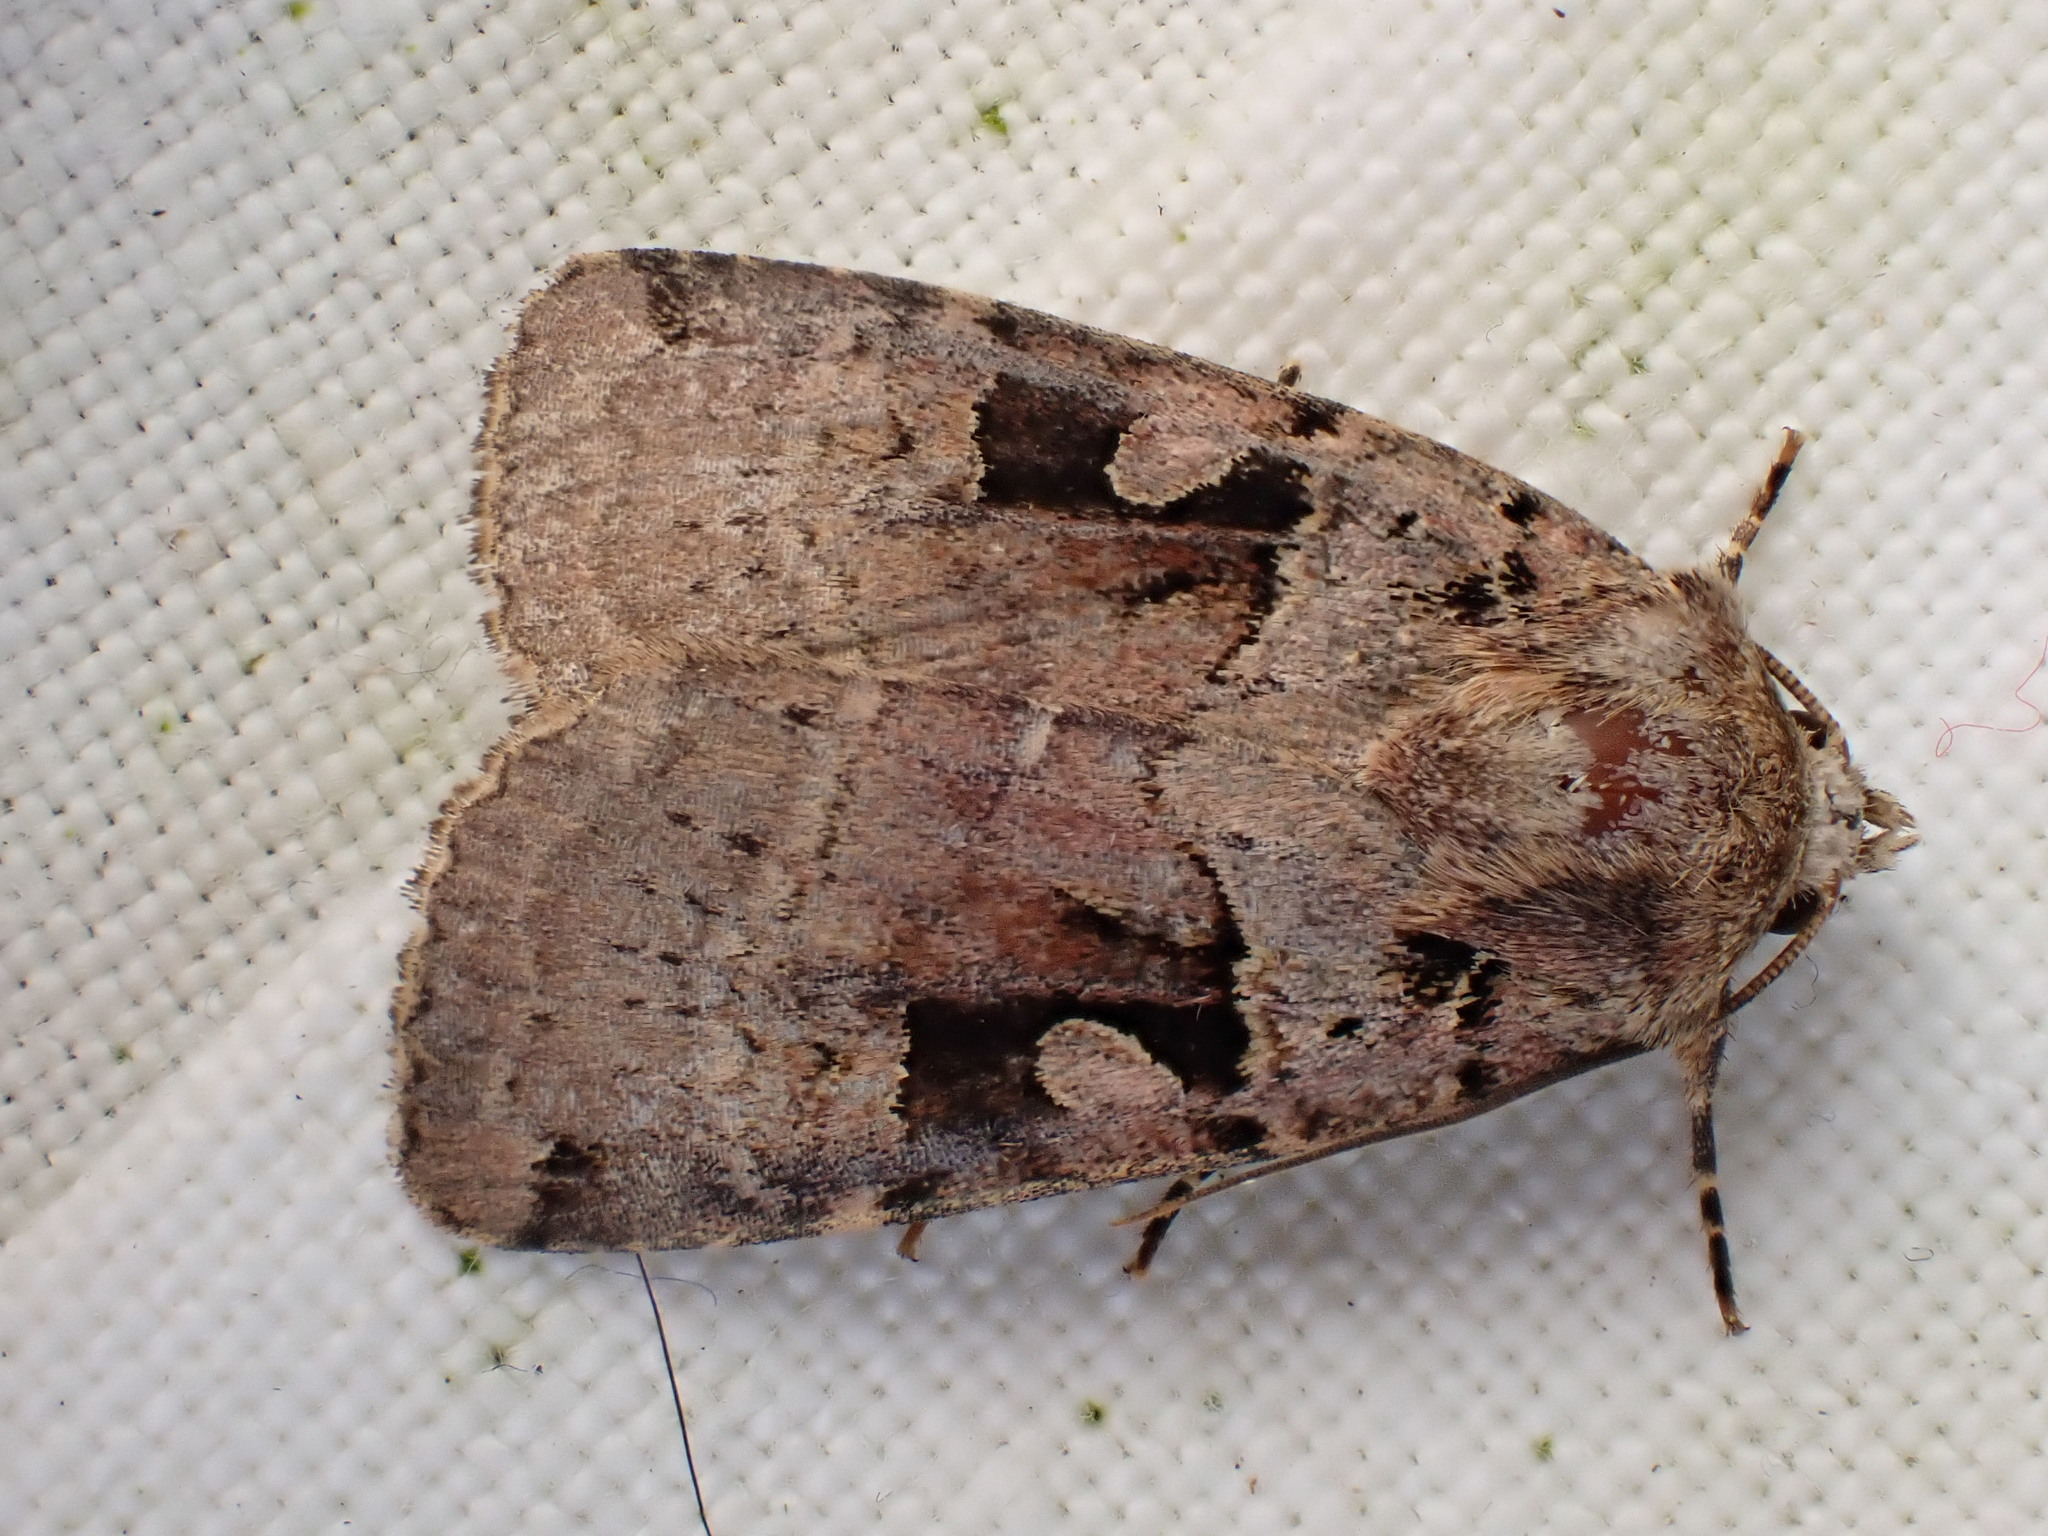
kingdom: Animalia
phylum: Arthropoda
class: Insecta
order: Lepidoptera
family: Noctuidae
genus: Xestia
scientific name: Xestia triangulum
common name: Double square-spot
